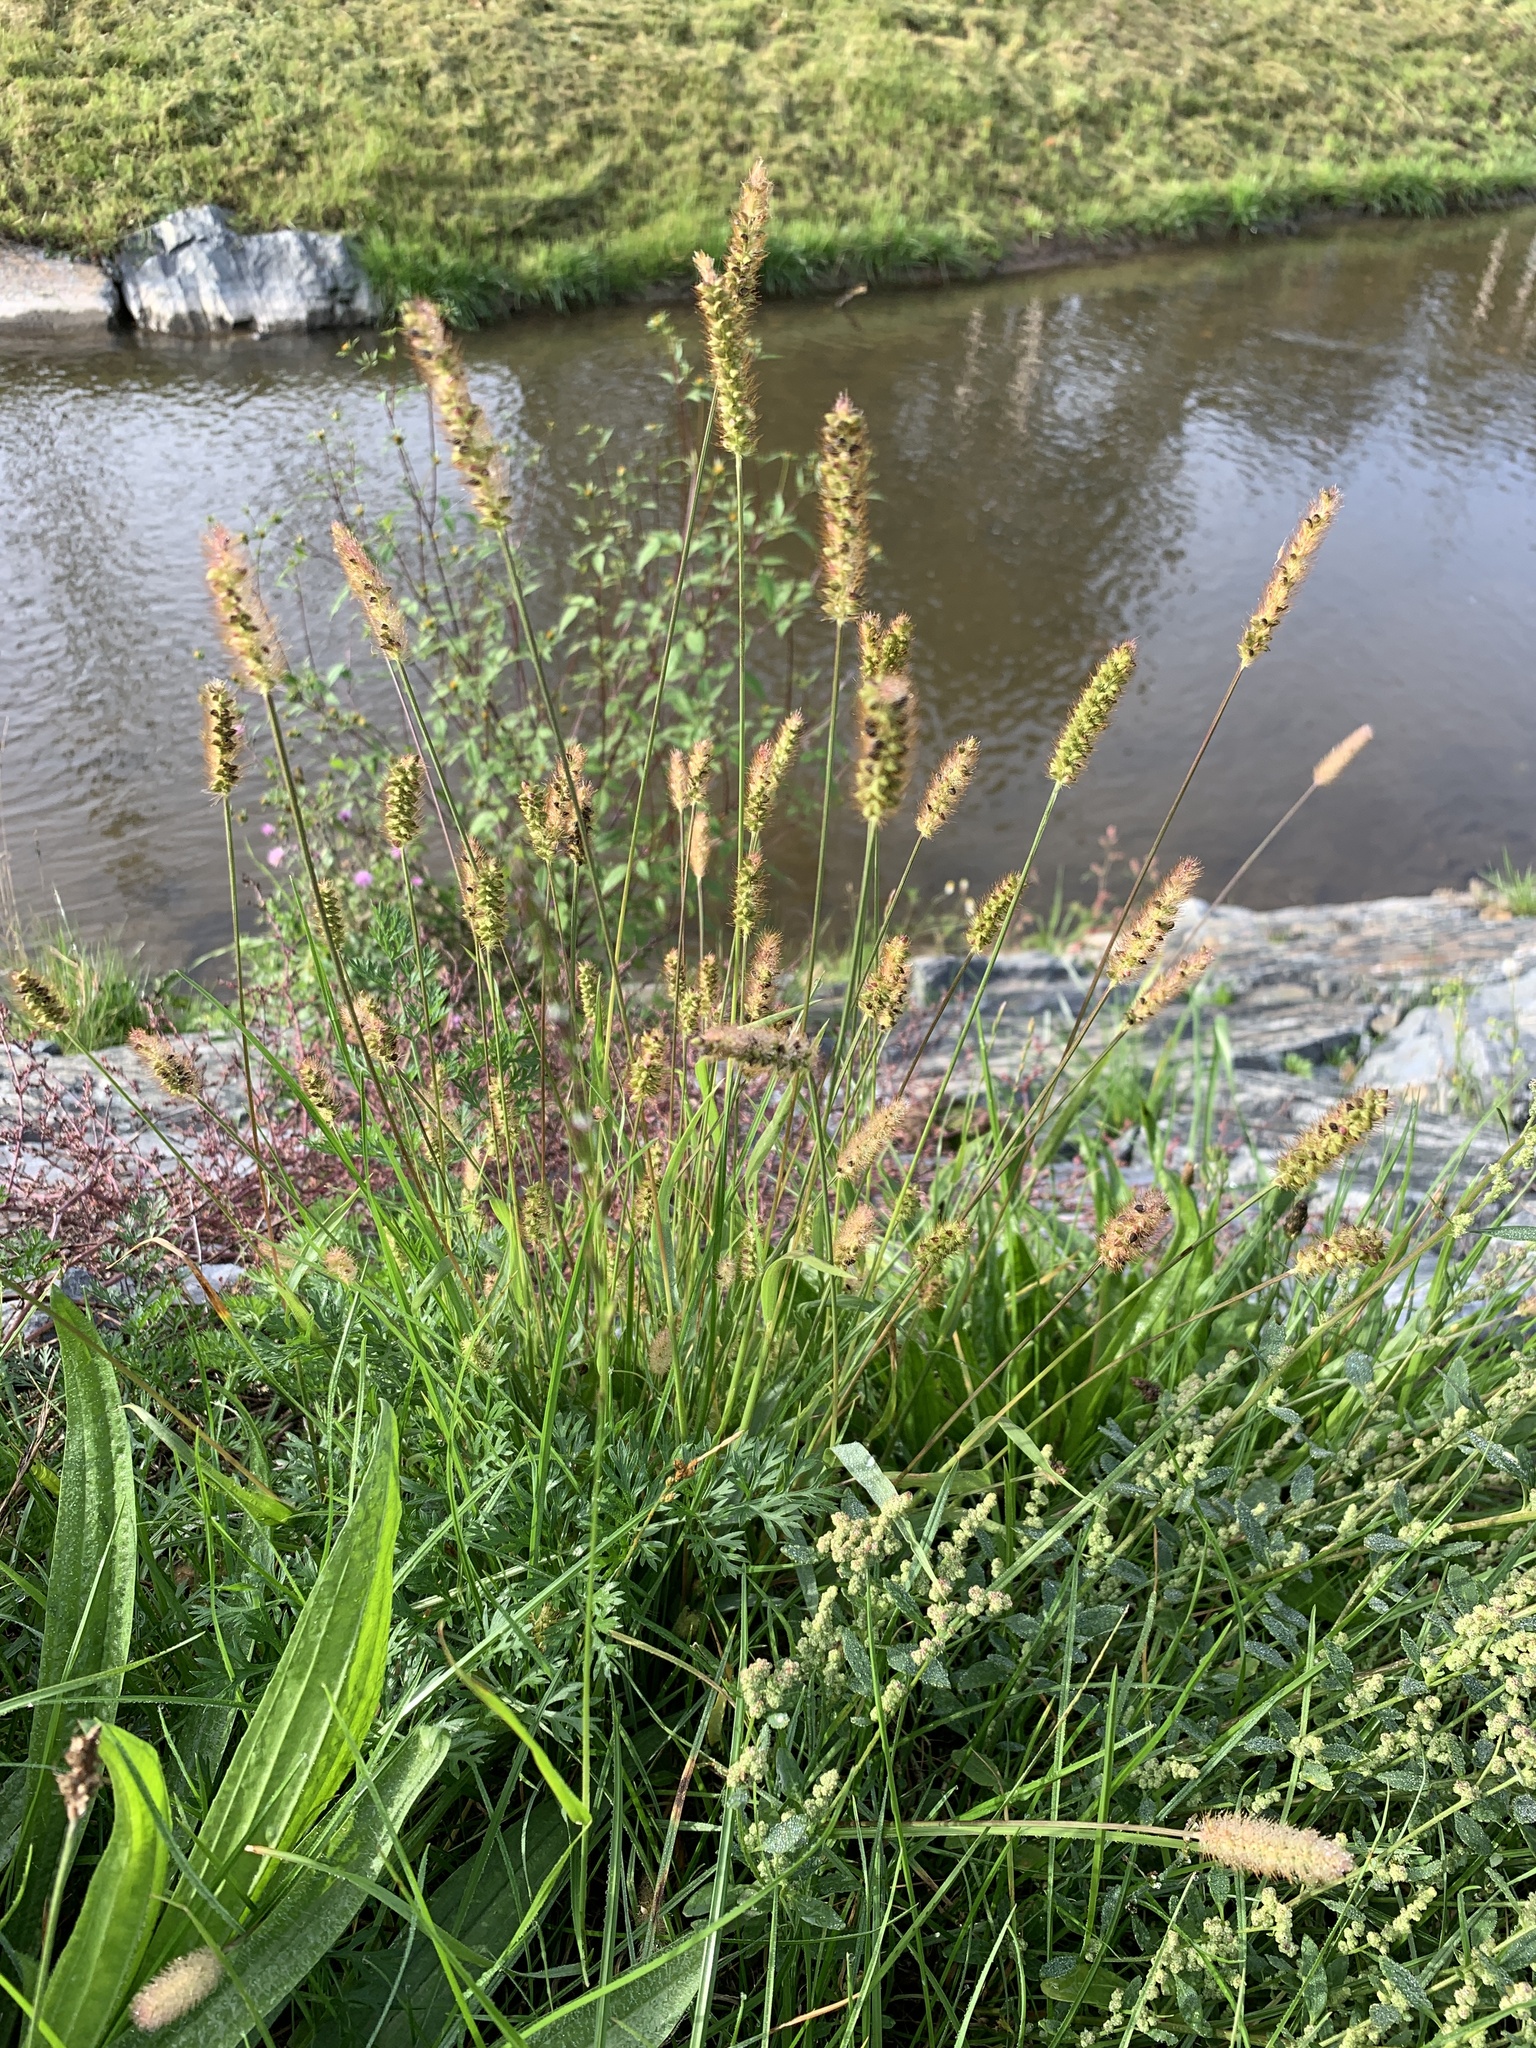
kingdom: Plantae
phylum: Tracheophyta
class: Liliopsida
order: Poales
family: Poaceae
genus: Setaria
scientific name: Setaria pumila
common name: Yellow bristle-grass
